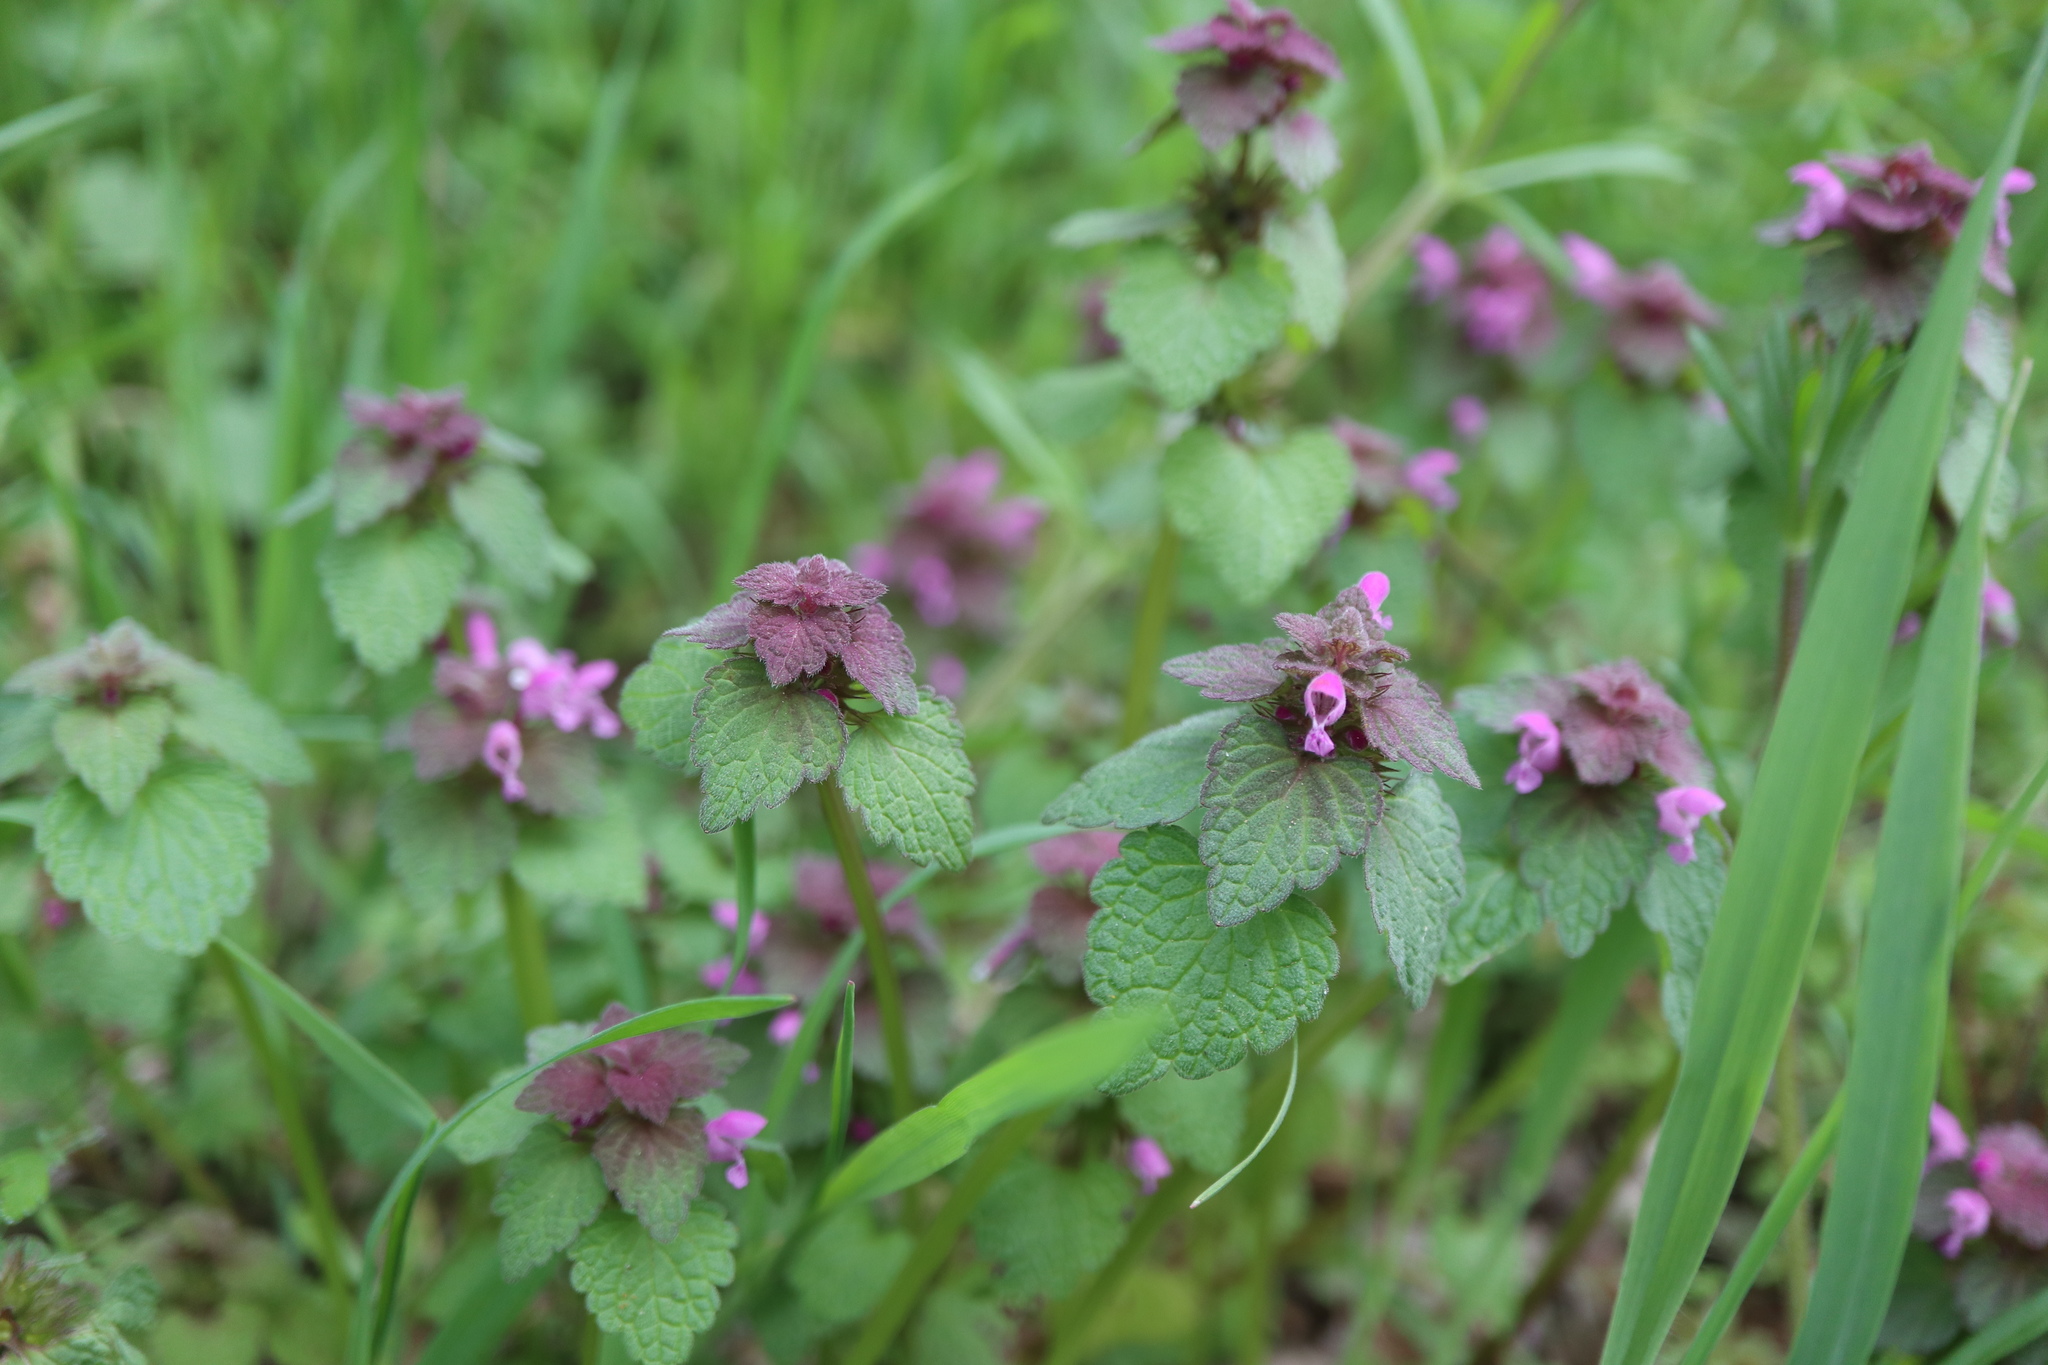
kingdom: Plantae
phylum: Tracheophyta
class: Magnoliopsida
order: Lamiales
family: Lamiaceae
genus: Lamium
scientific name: Lamium purpureum
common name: Red dead-nettle
